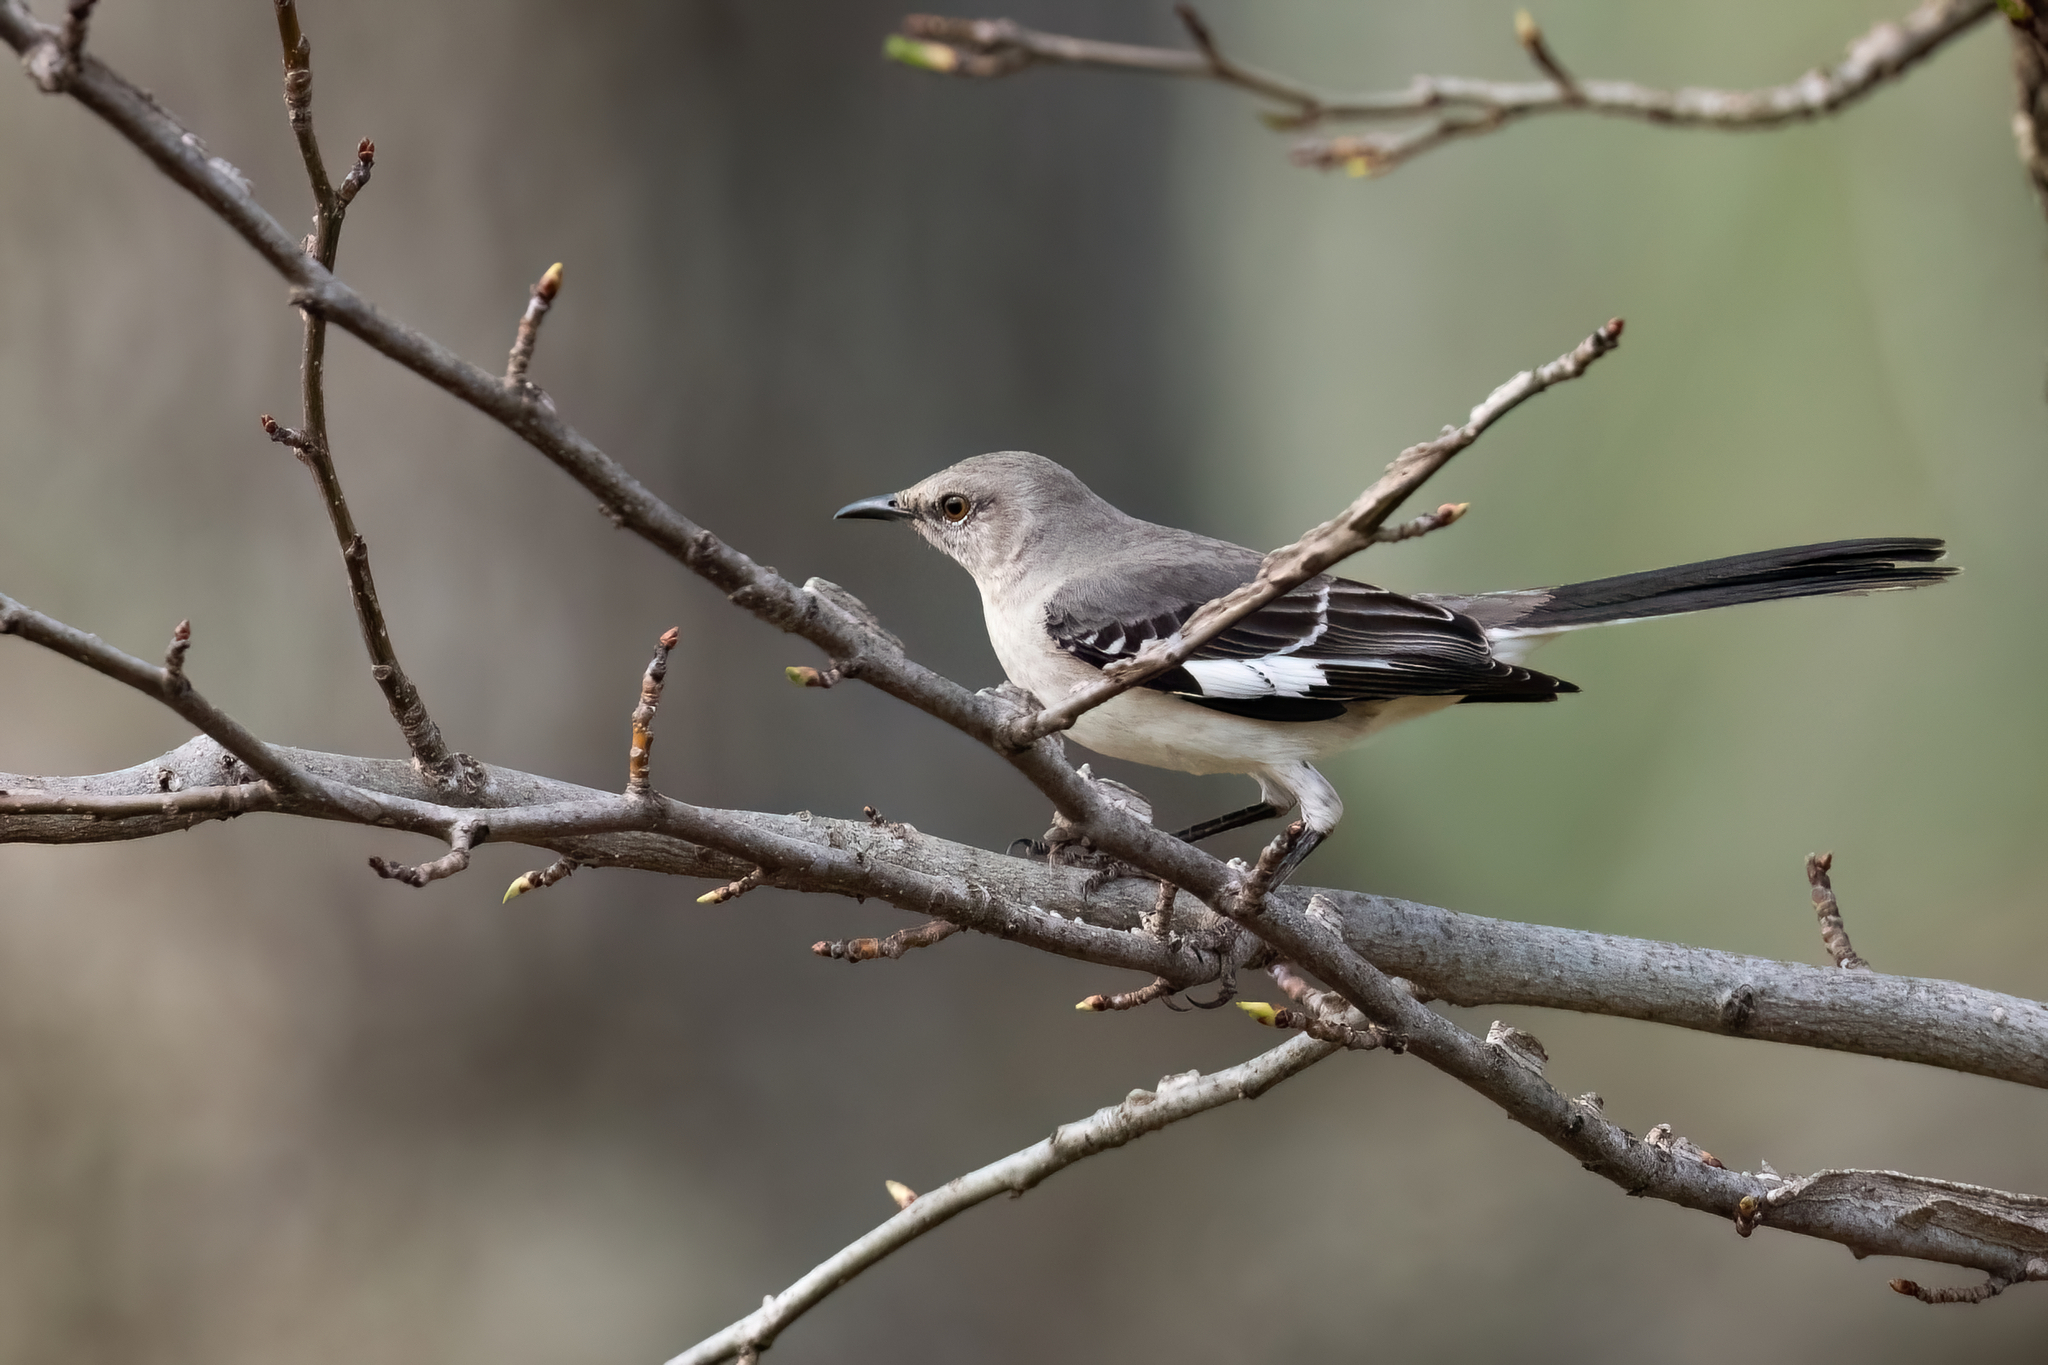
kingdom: Animalia
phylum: Chordata
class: Aves
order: Passeriformes
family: Mimidae
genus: Mimus
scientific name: Mimus polyglottos
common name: Northern mockingbird
